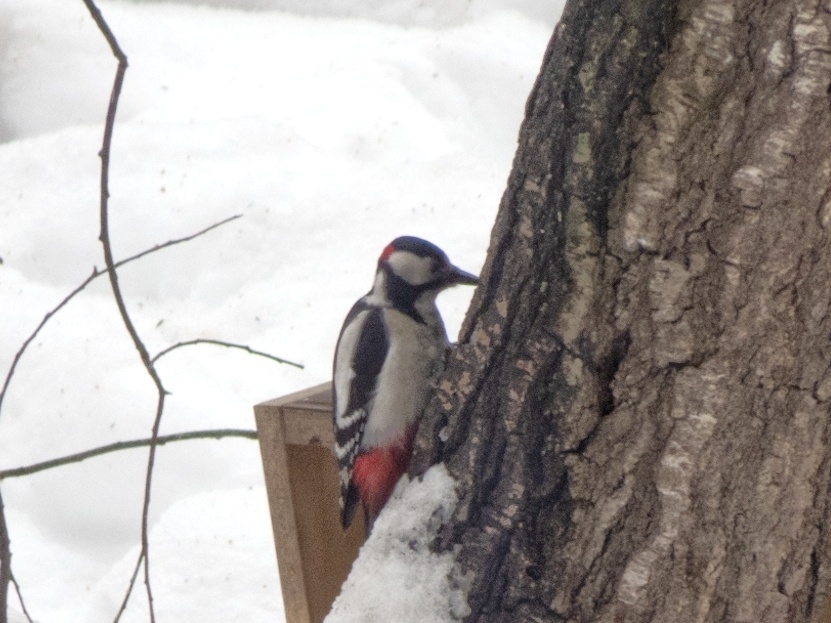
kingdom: Animalia
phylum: Chordata
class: Aves
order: Piciformes
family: Picidae
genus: Dendrocopos
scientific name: Dendrocopos major
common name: Great spotted woodpecker
